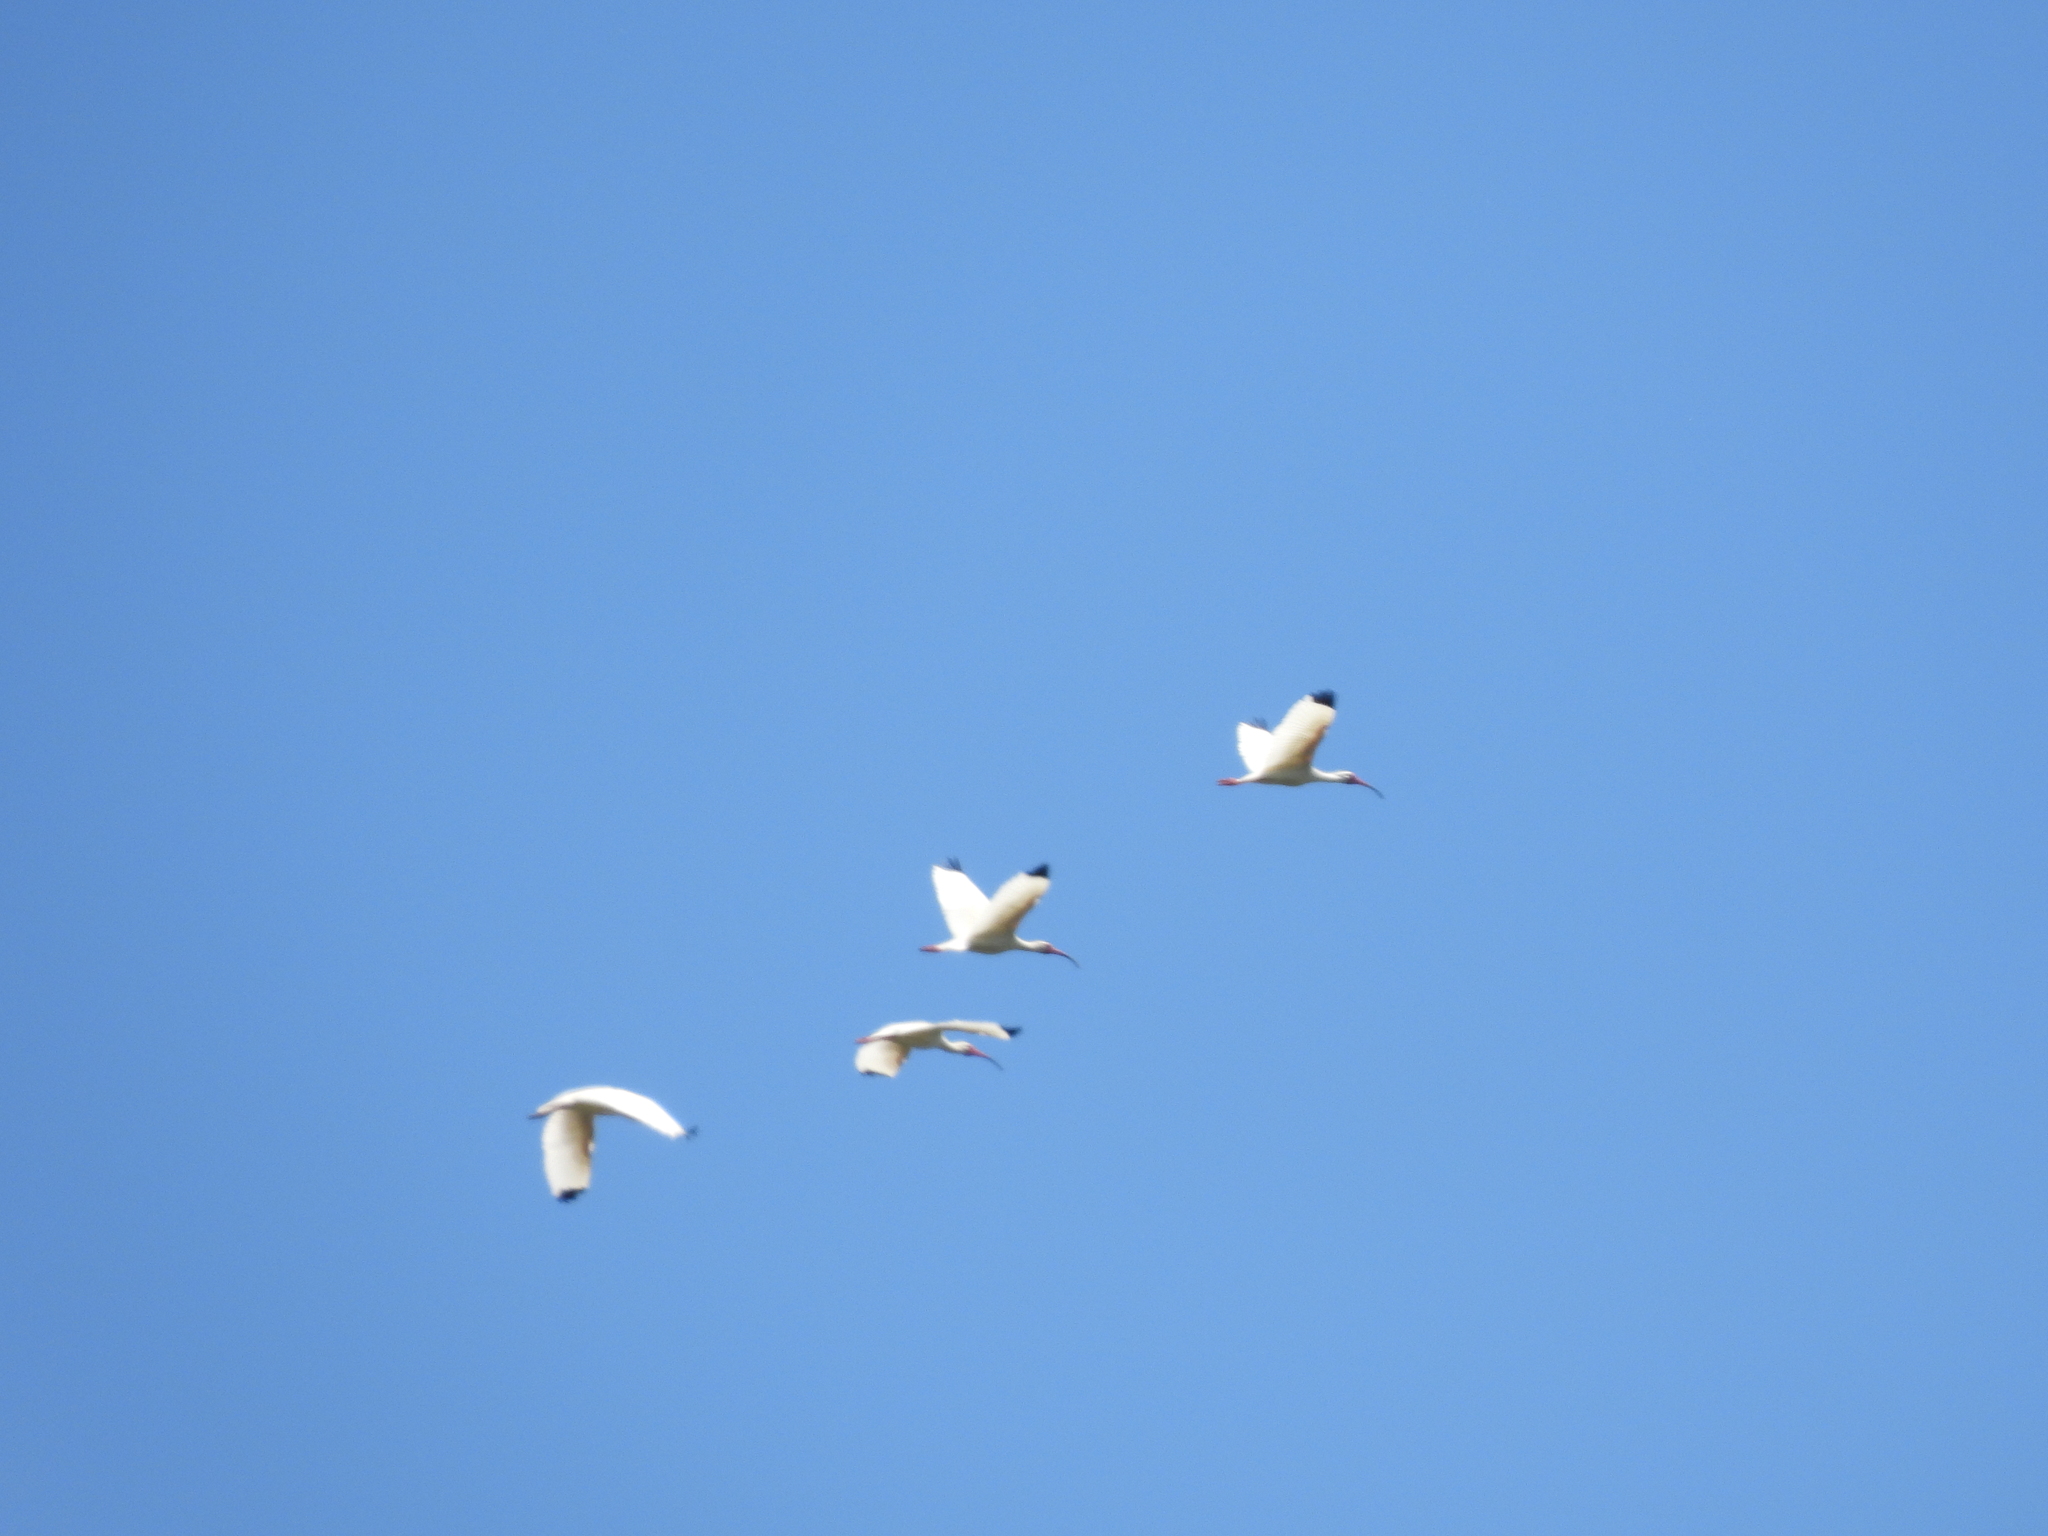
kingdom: Animalia
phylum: Chordata
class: Aves
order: Pelecaniformes
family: Threskiornithidae
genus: Eudocimus
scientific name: Eudocimus albus
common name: White ibis
